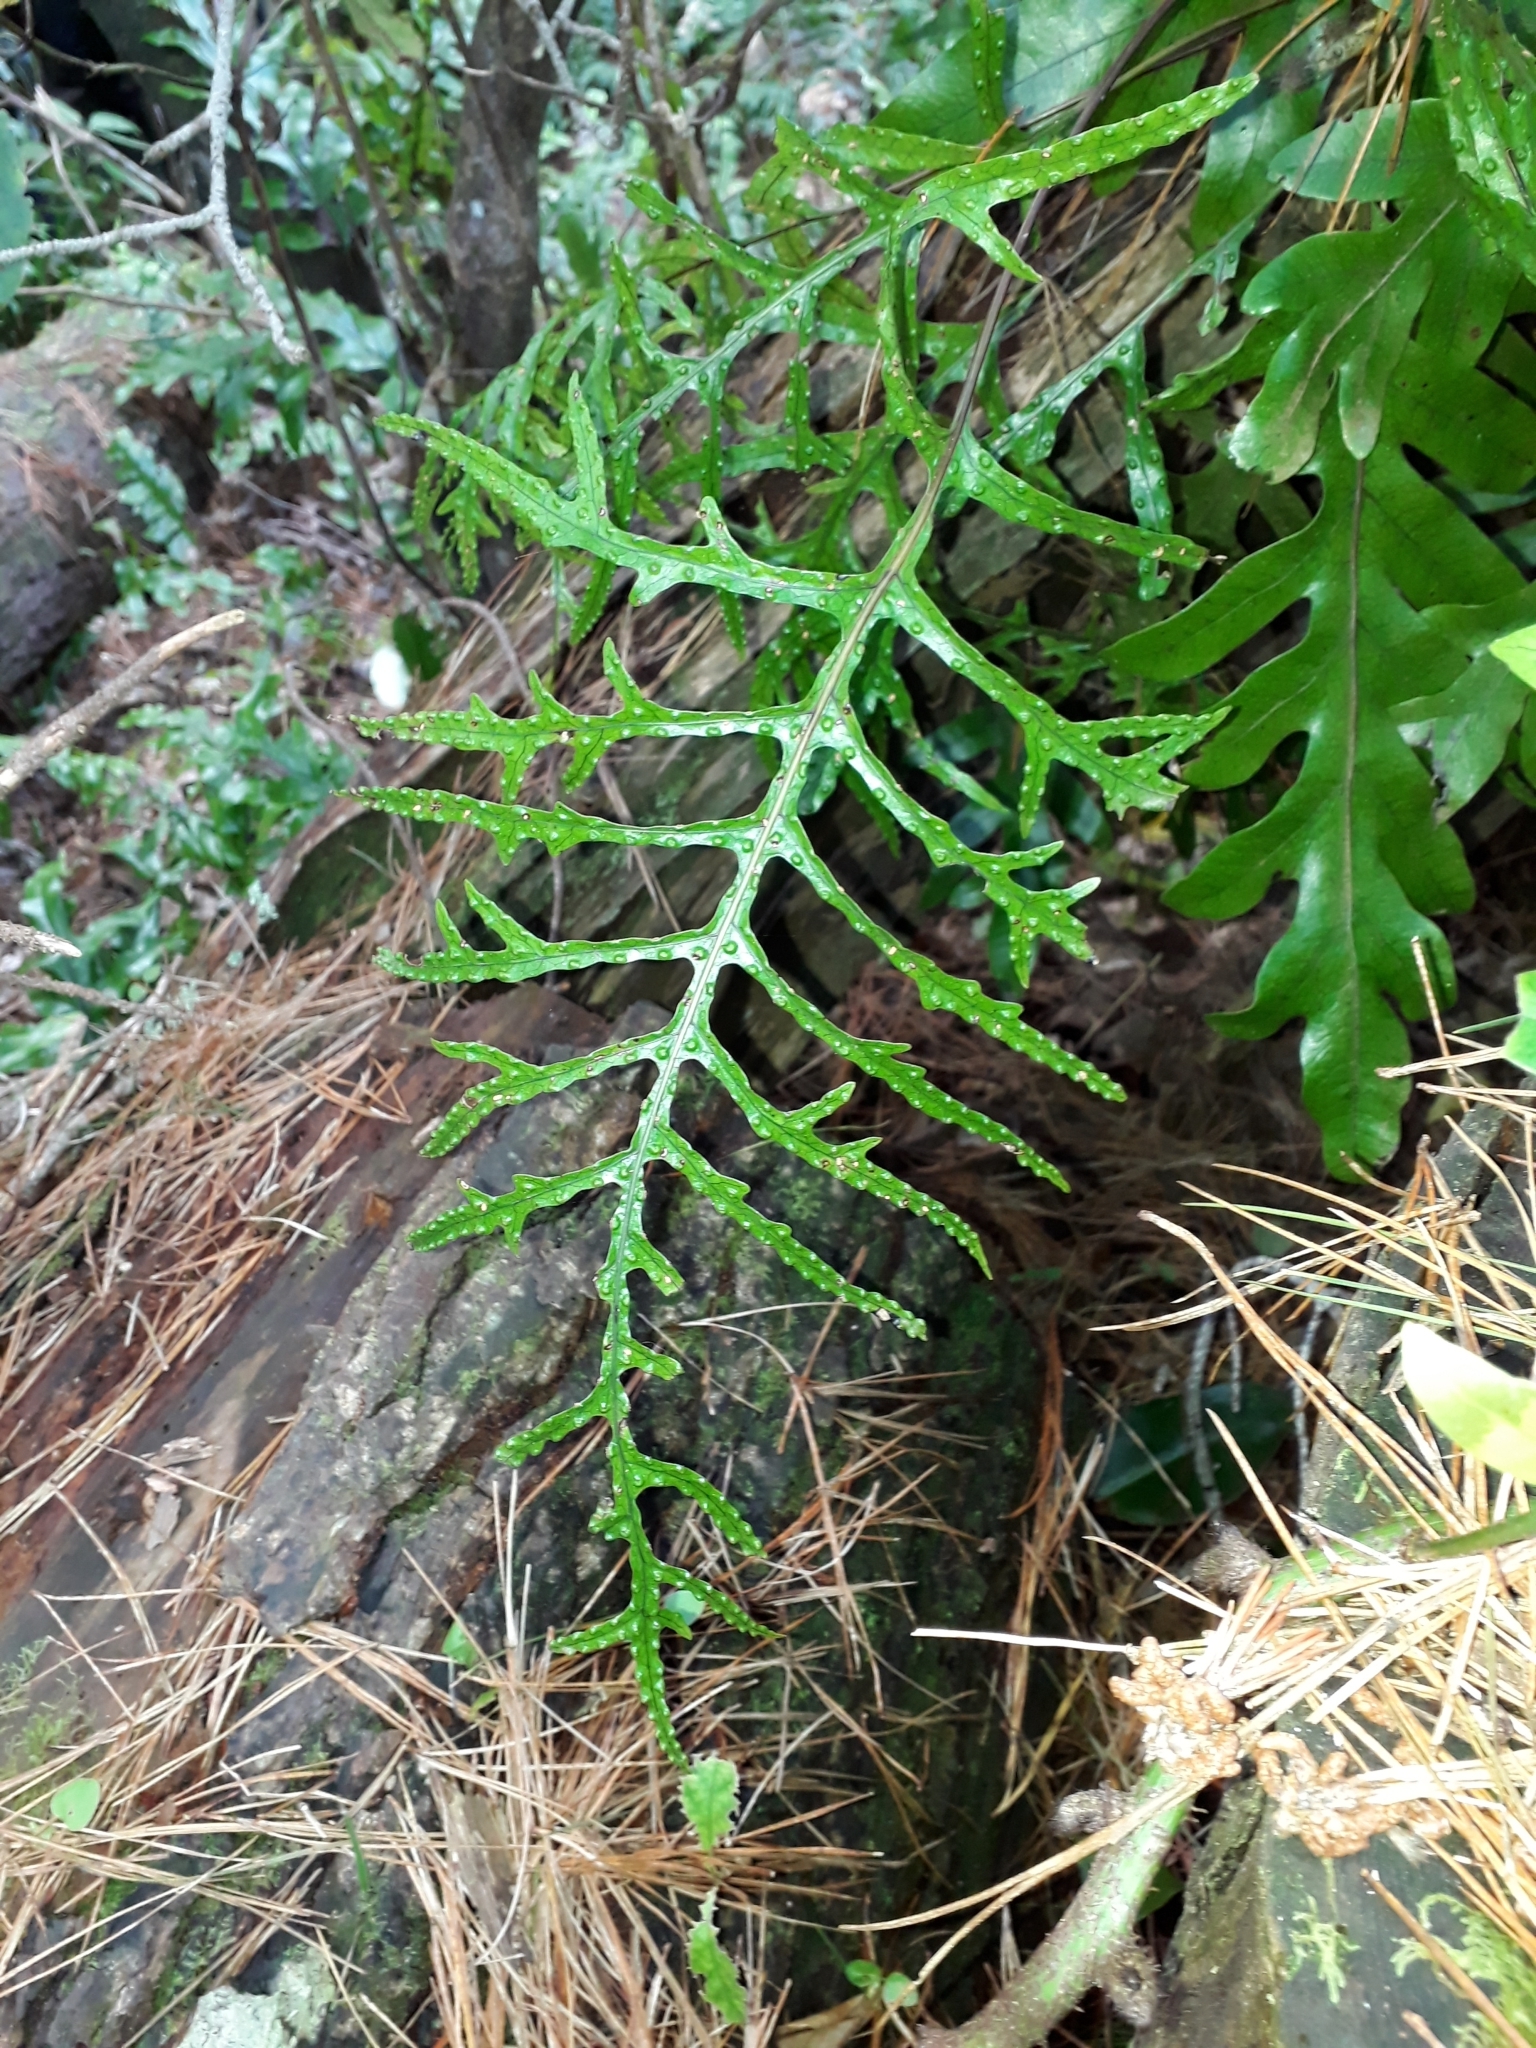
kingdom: Plantae
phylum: Tracheophyta
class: Polypodiopsida
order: Polypodiales
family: Polypodiaceae
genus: Lecanopteris
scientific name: Lecanopteris pustulata
